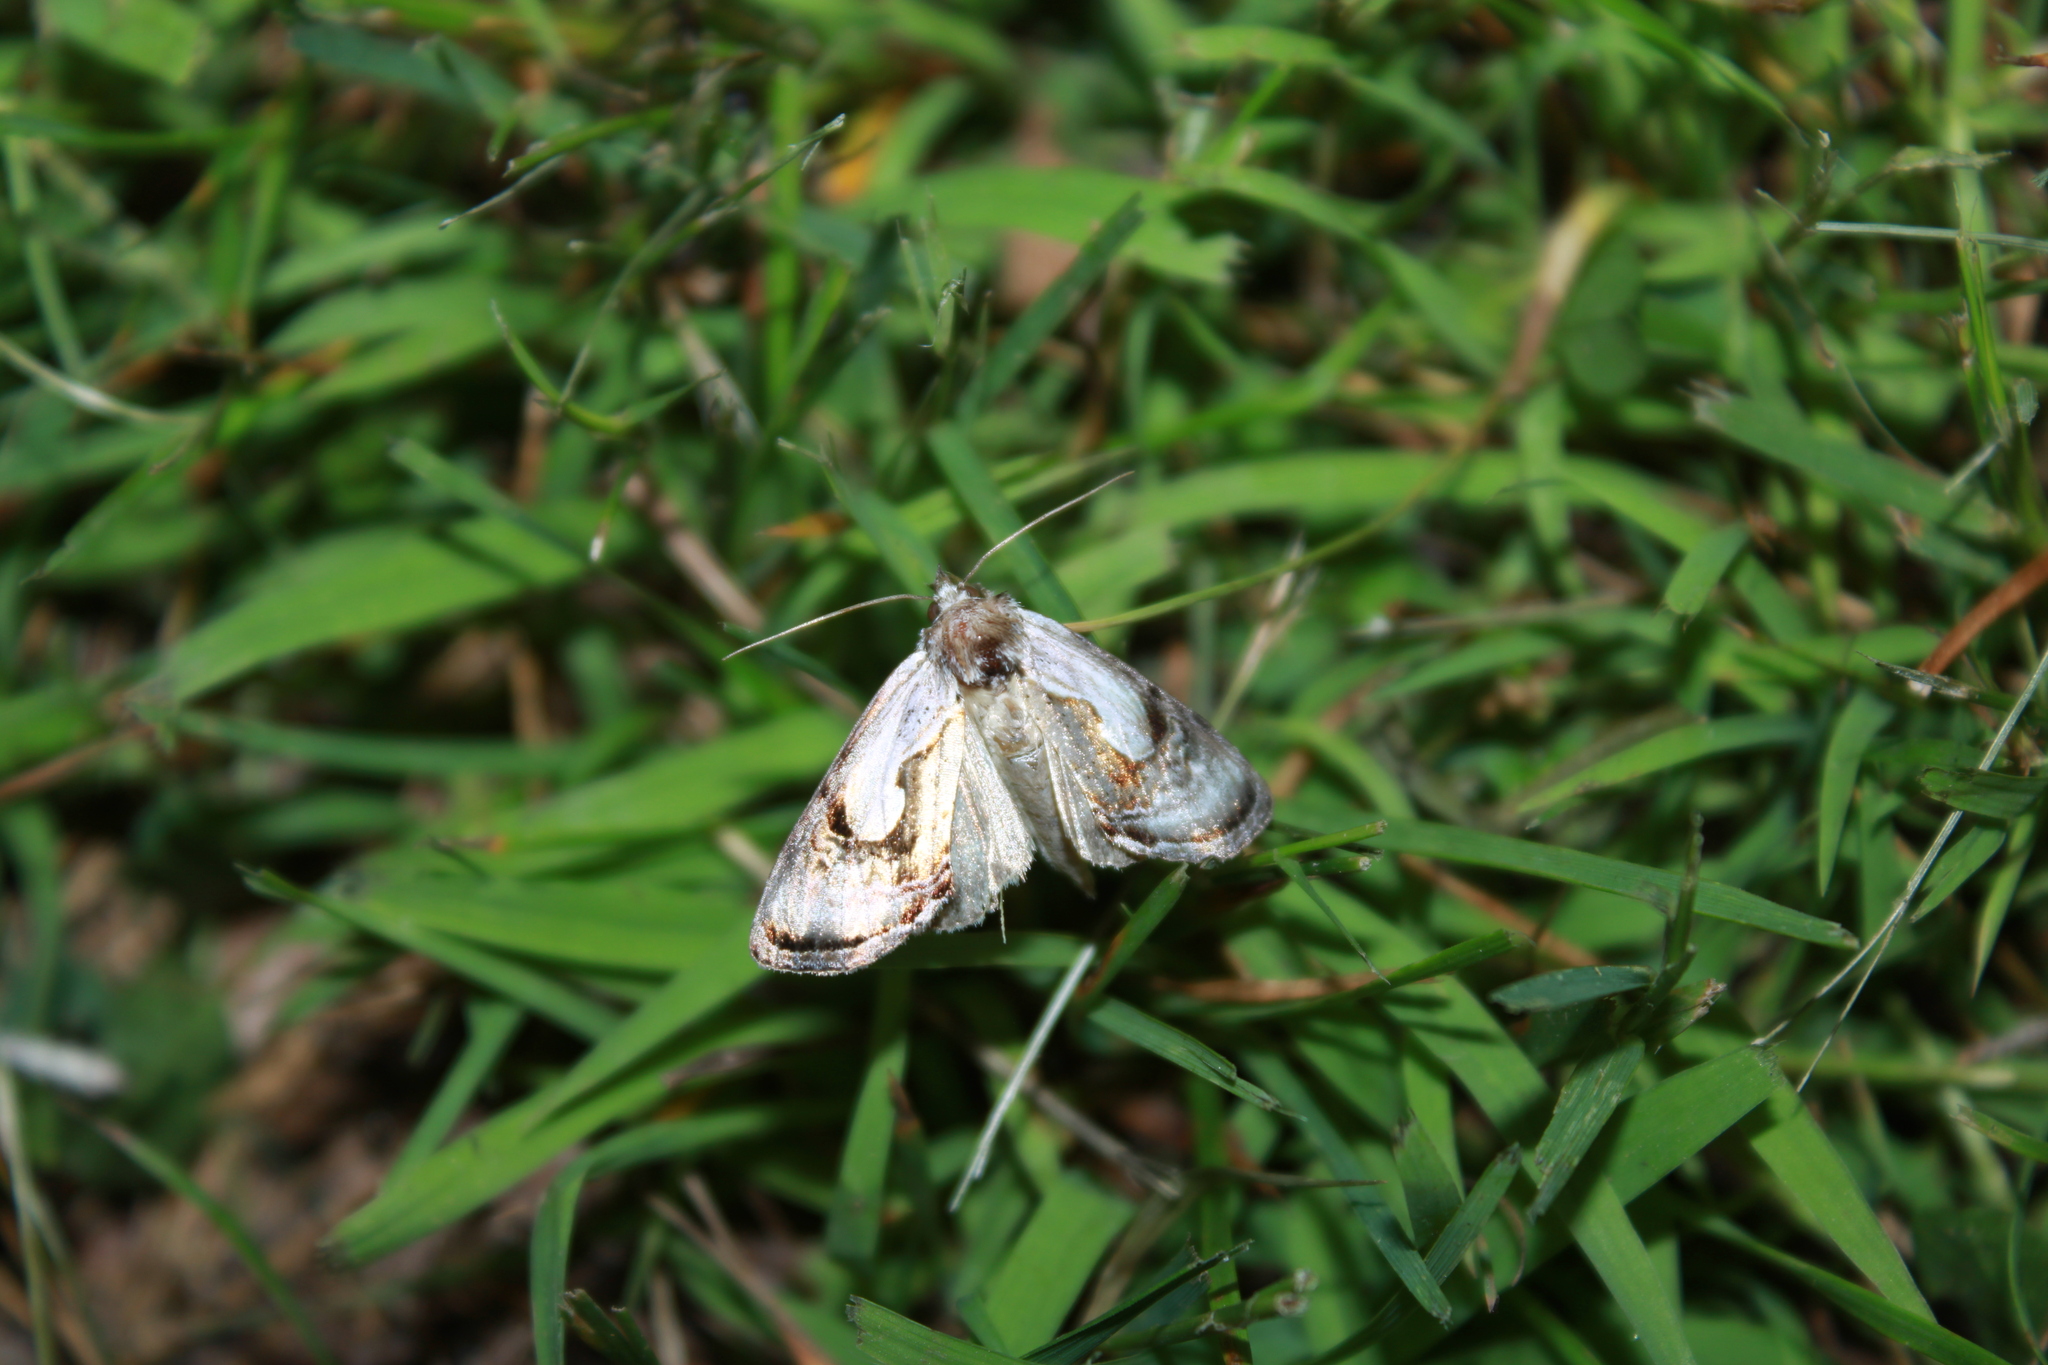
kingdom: Animalia
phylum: Arthropoda
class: Insecta
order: Lepidoptera
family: Noctuidae
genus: Chrysanympha
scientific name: Chrysanympha formosa
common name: Formosa looper moth
